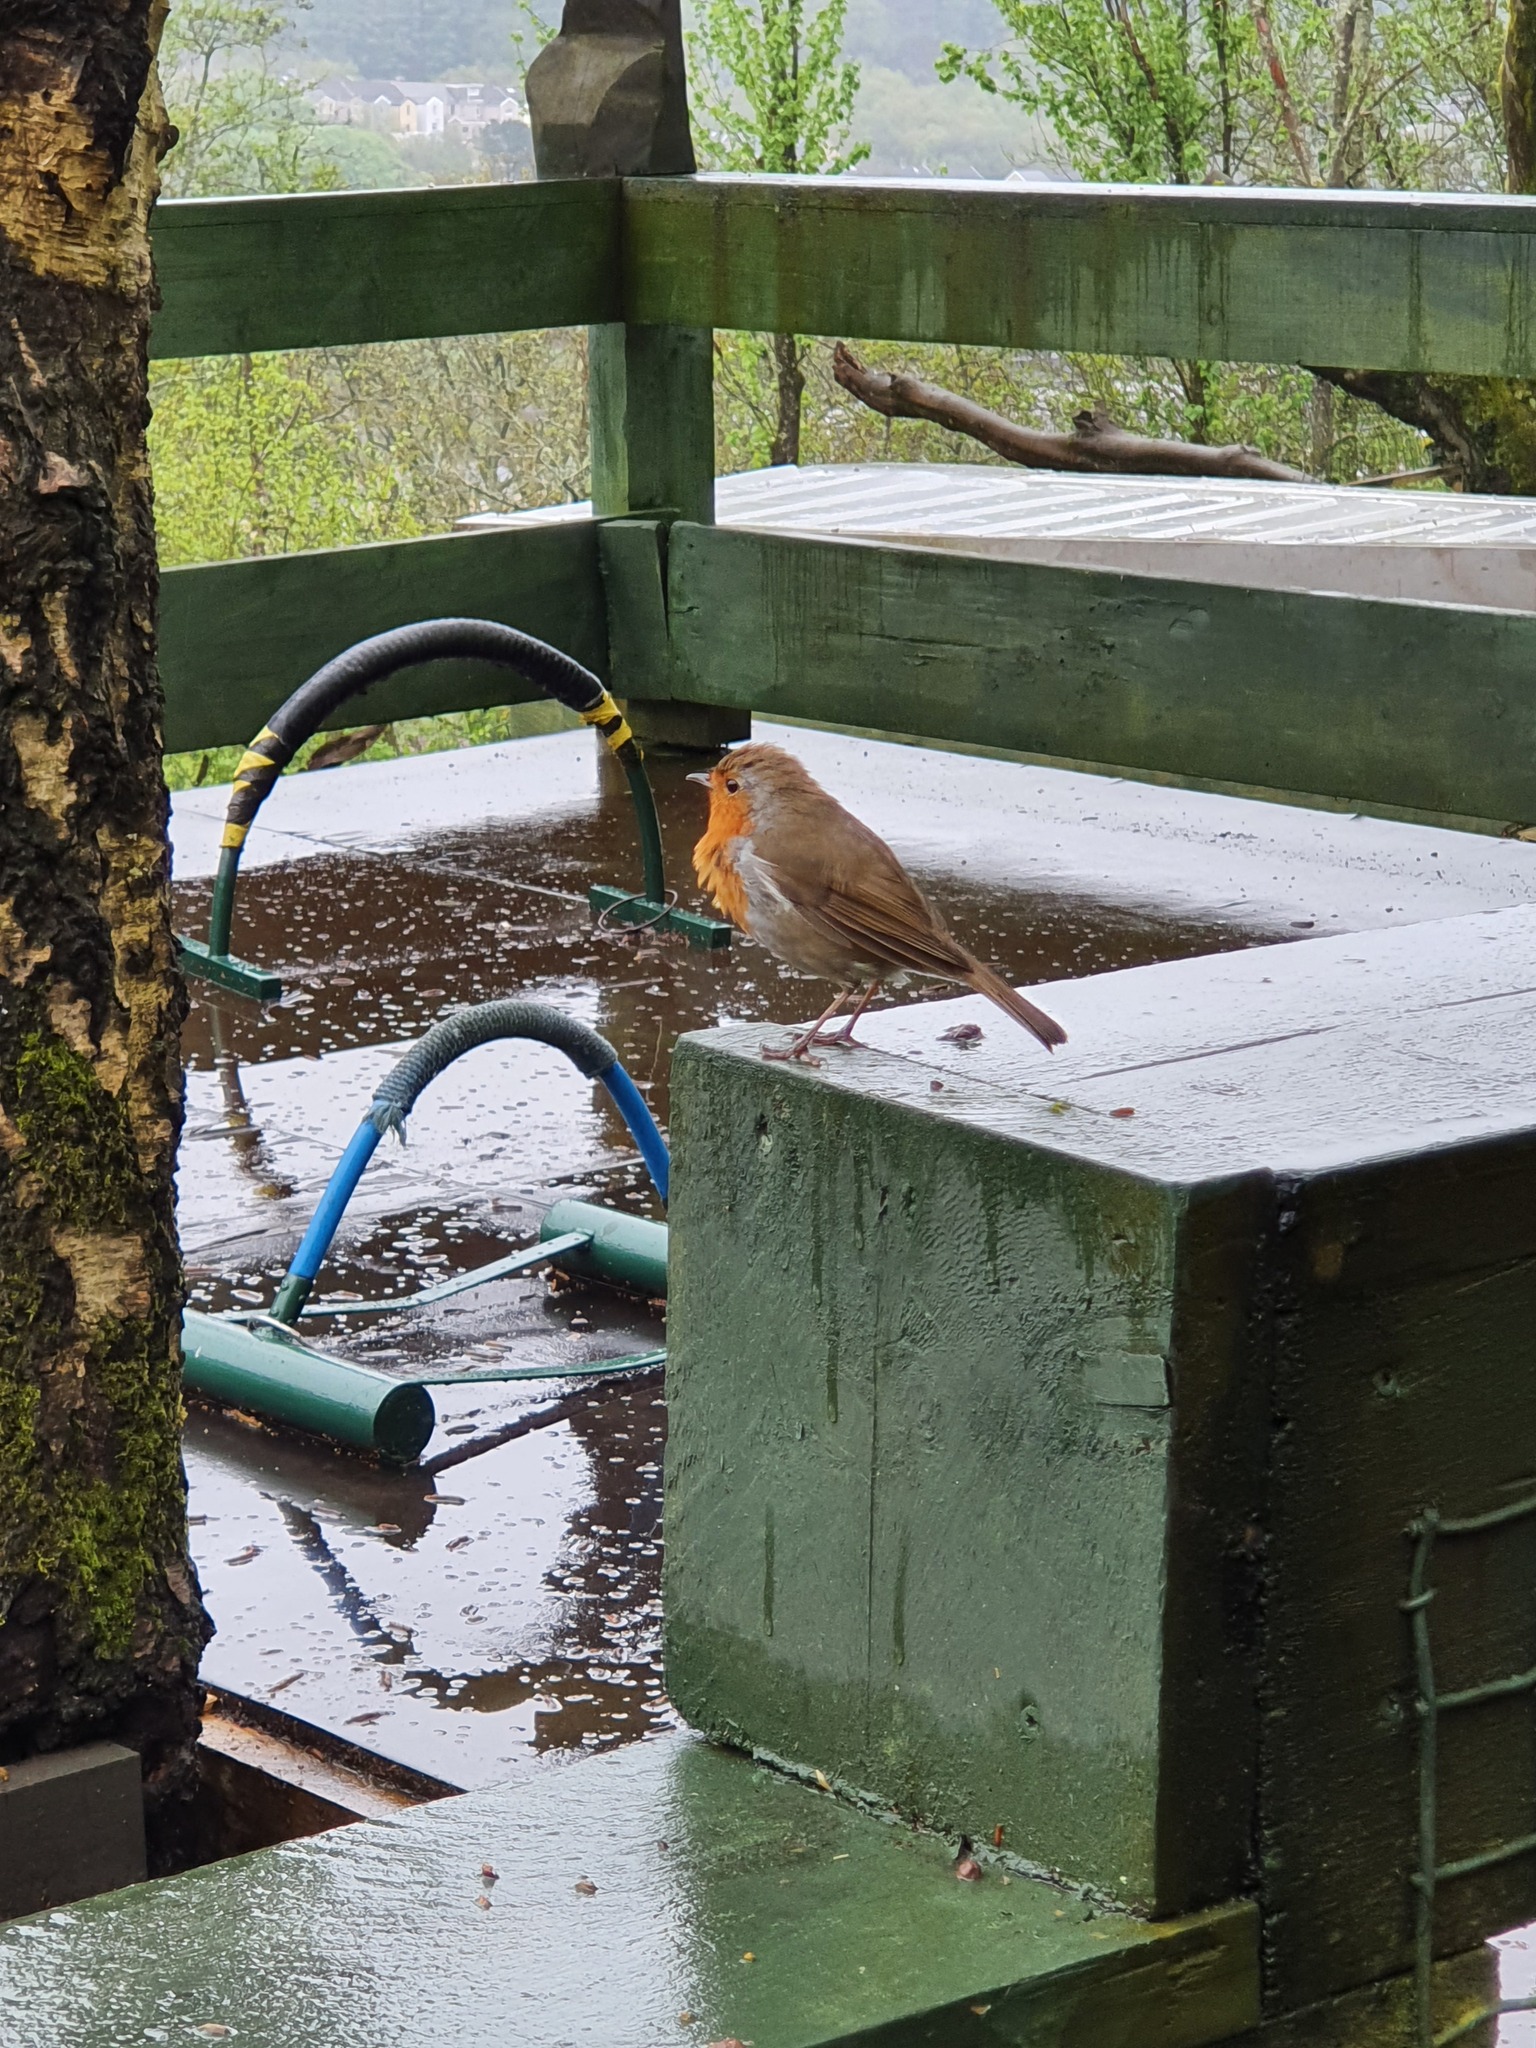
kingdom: Animalia
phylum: Chordata
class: Aves
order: Passeriformes
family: Muscicapidae
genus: Erithacus
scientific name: Erithacus rubecula
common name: European robin
